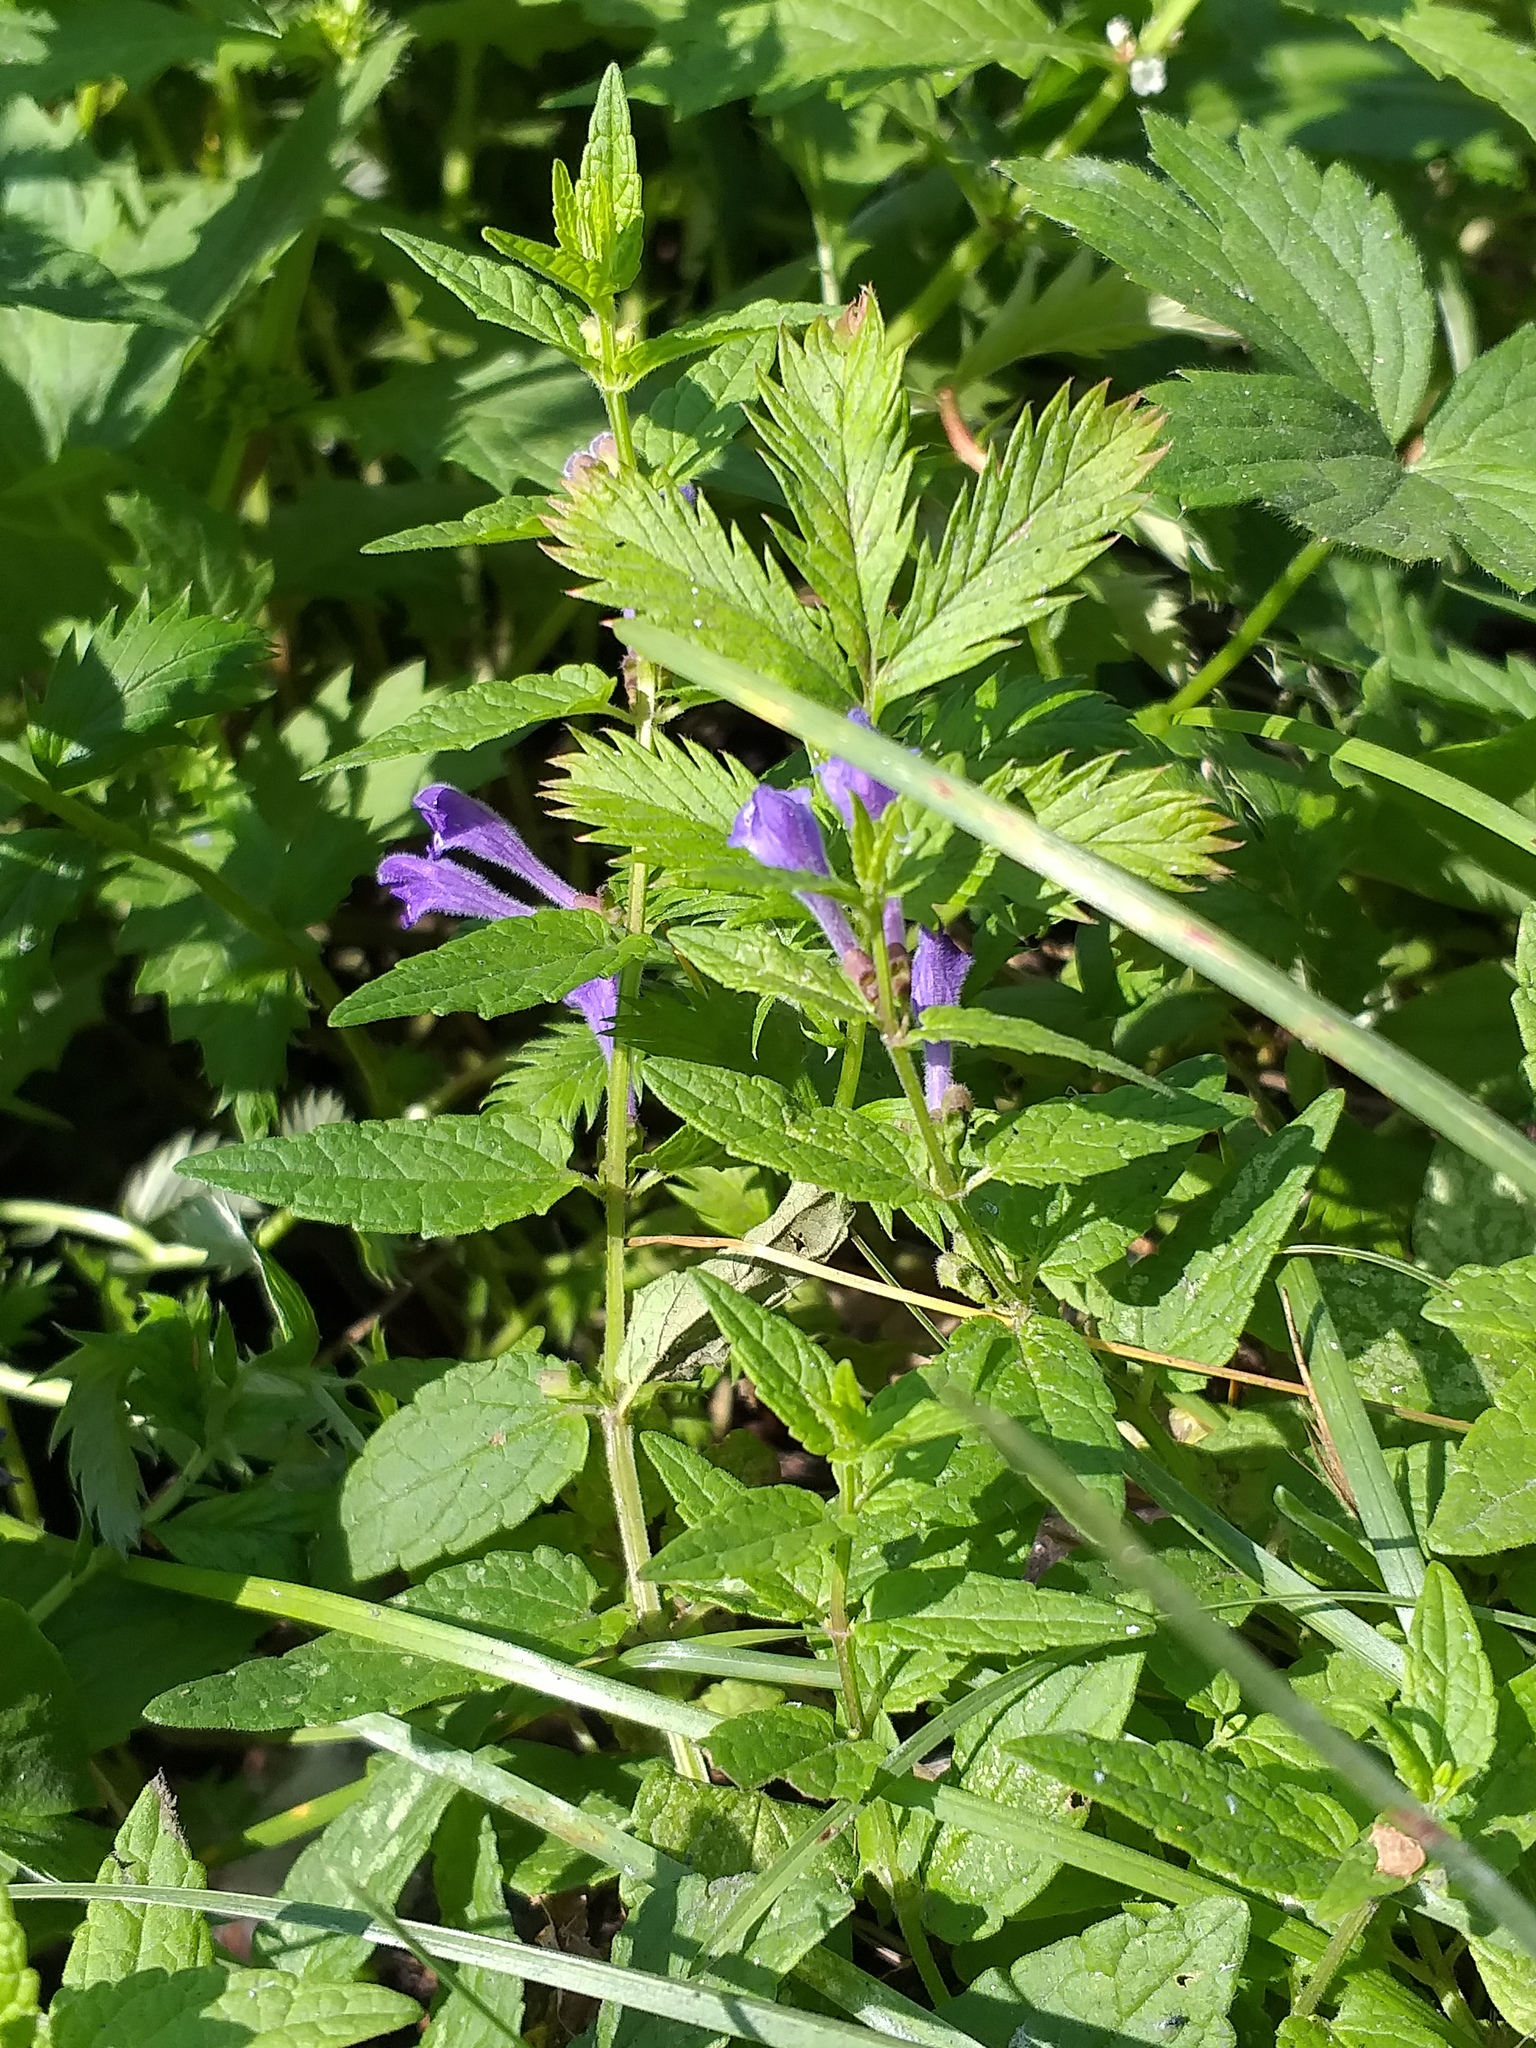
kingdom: Plantae
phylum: Tracheophyta
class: Magnoliopsida
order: Lamiales
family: Lamiaceae
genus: Scutellaria
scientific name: Scutellaria galericulata
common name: Skullcap
